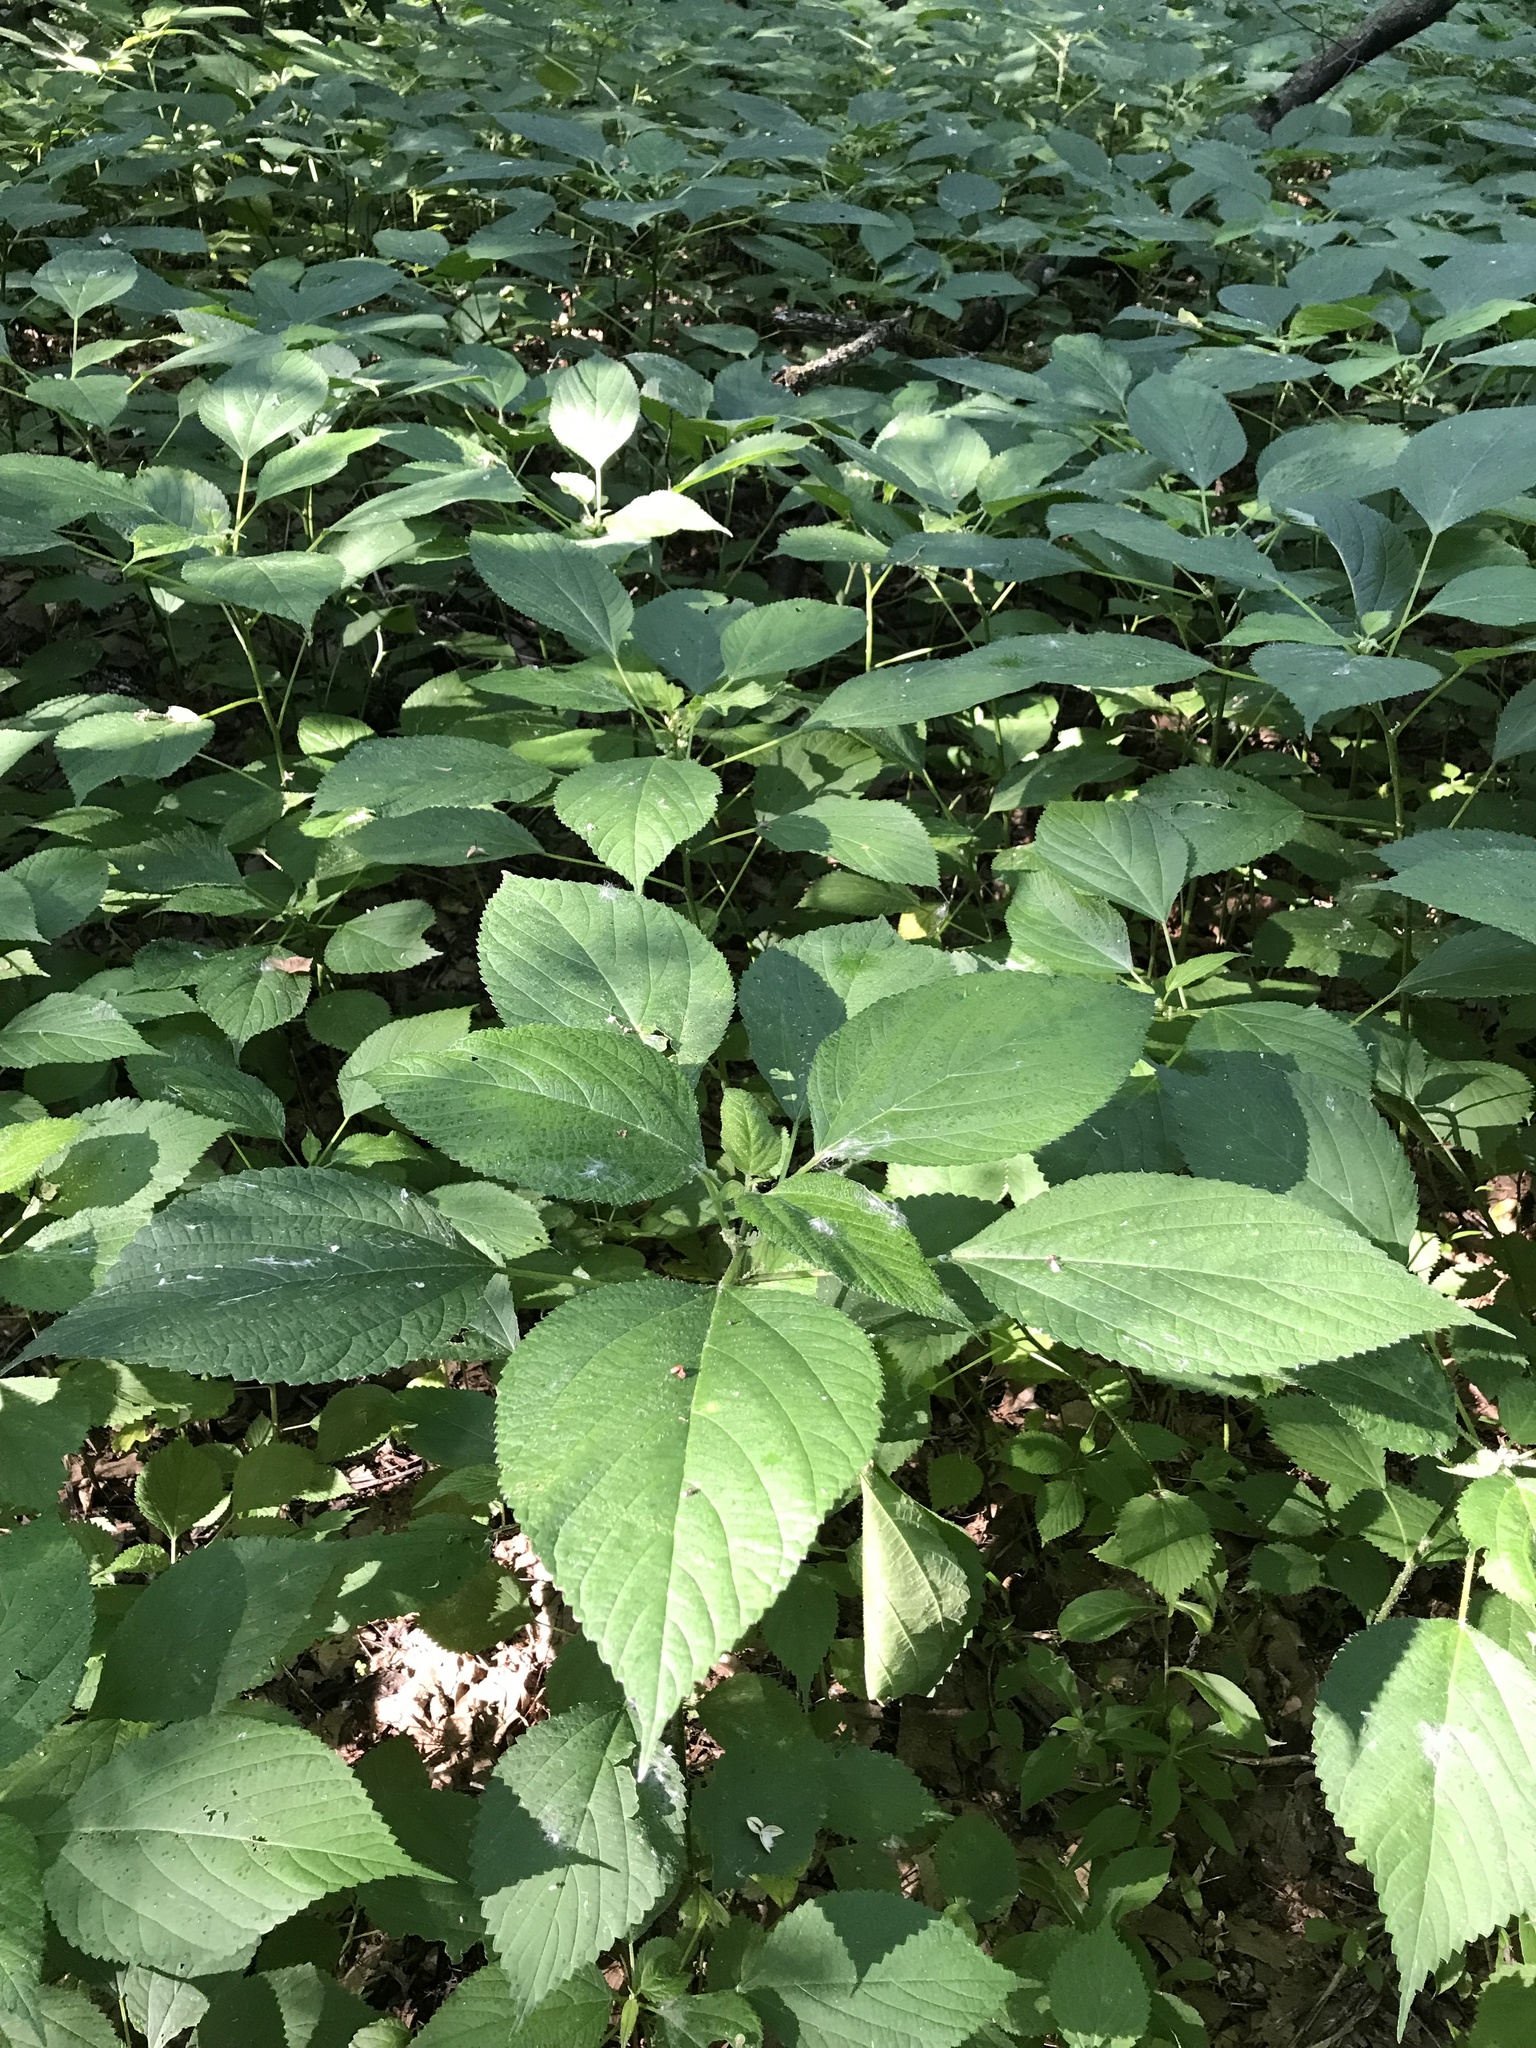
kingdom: Plantae
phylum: Tracheophyta
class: Magnoliopsida
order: Rosales
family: Urticaceae
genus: Laportea
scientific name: Laportea canadensis
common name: Canada nettle
